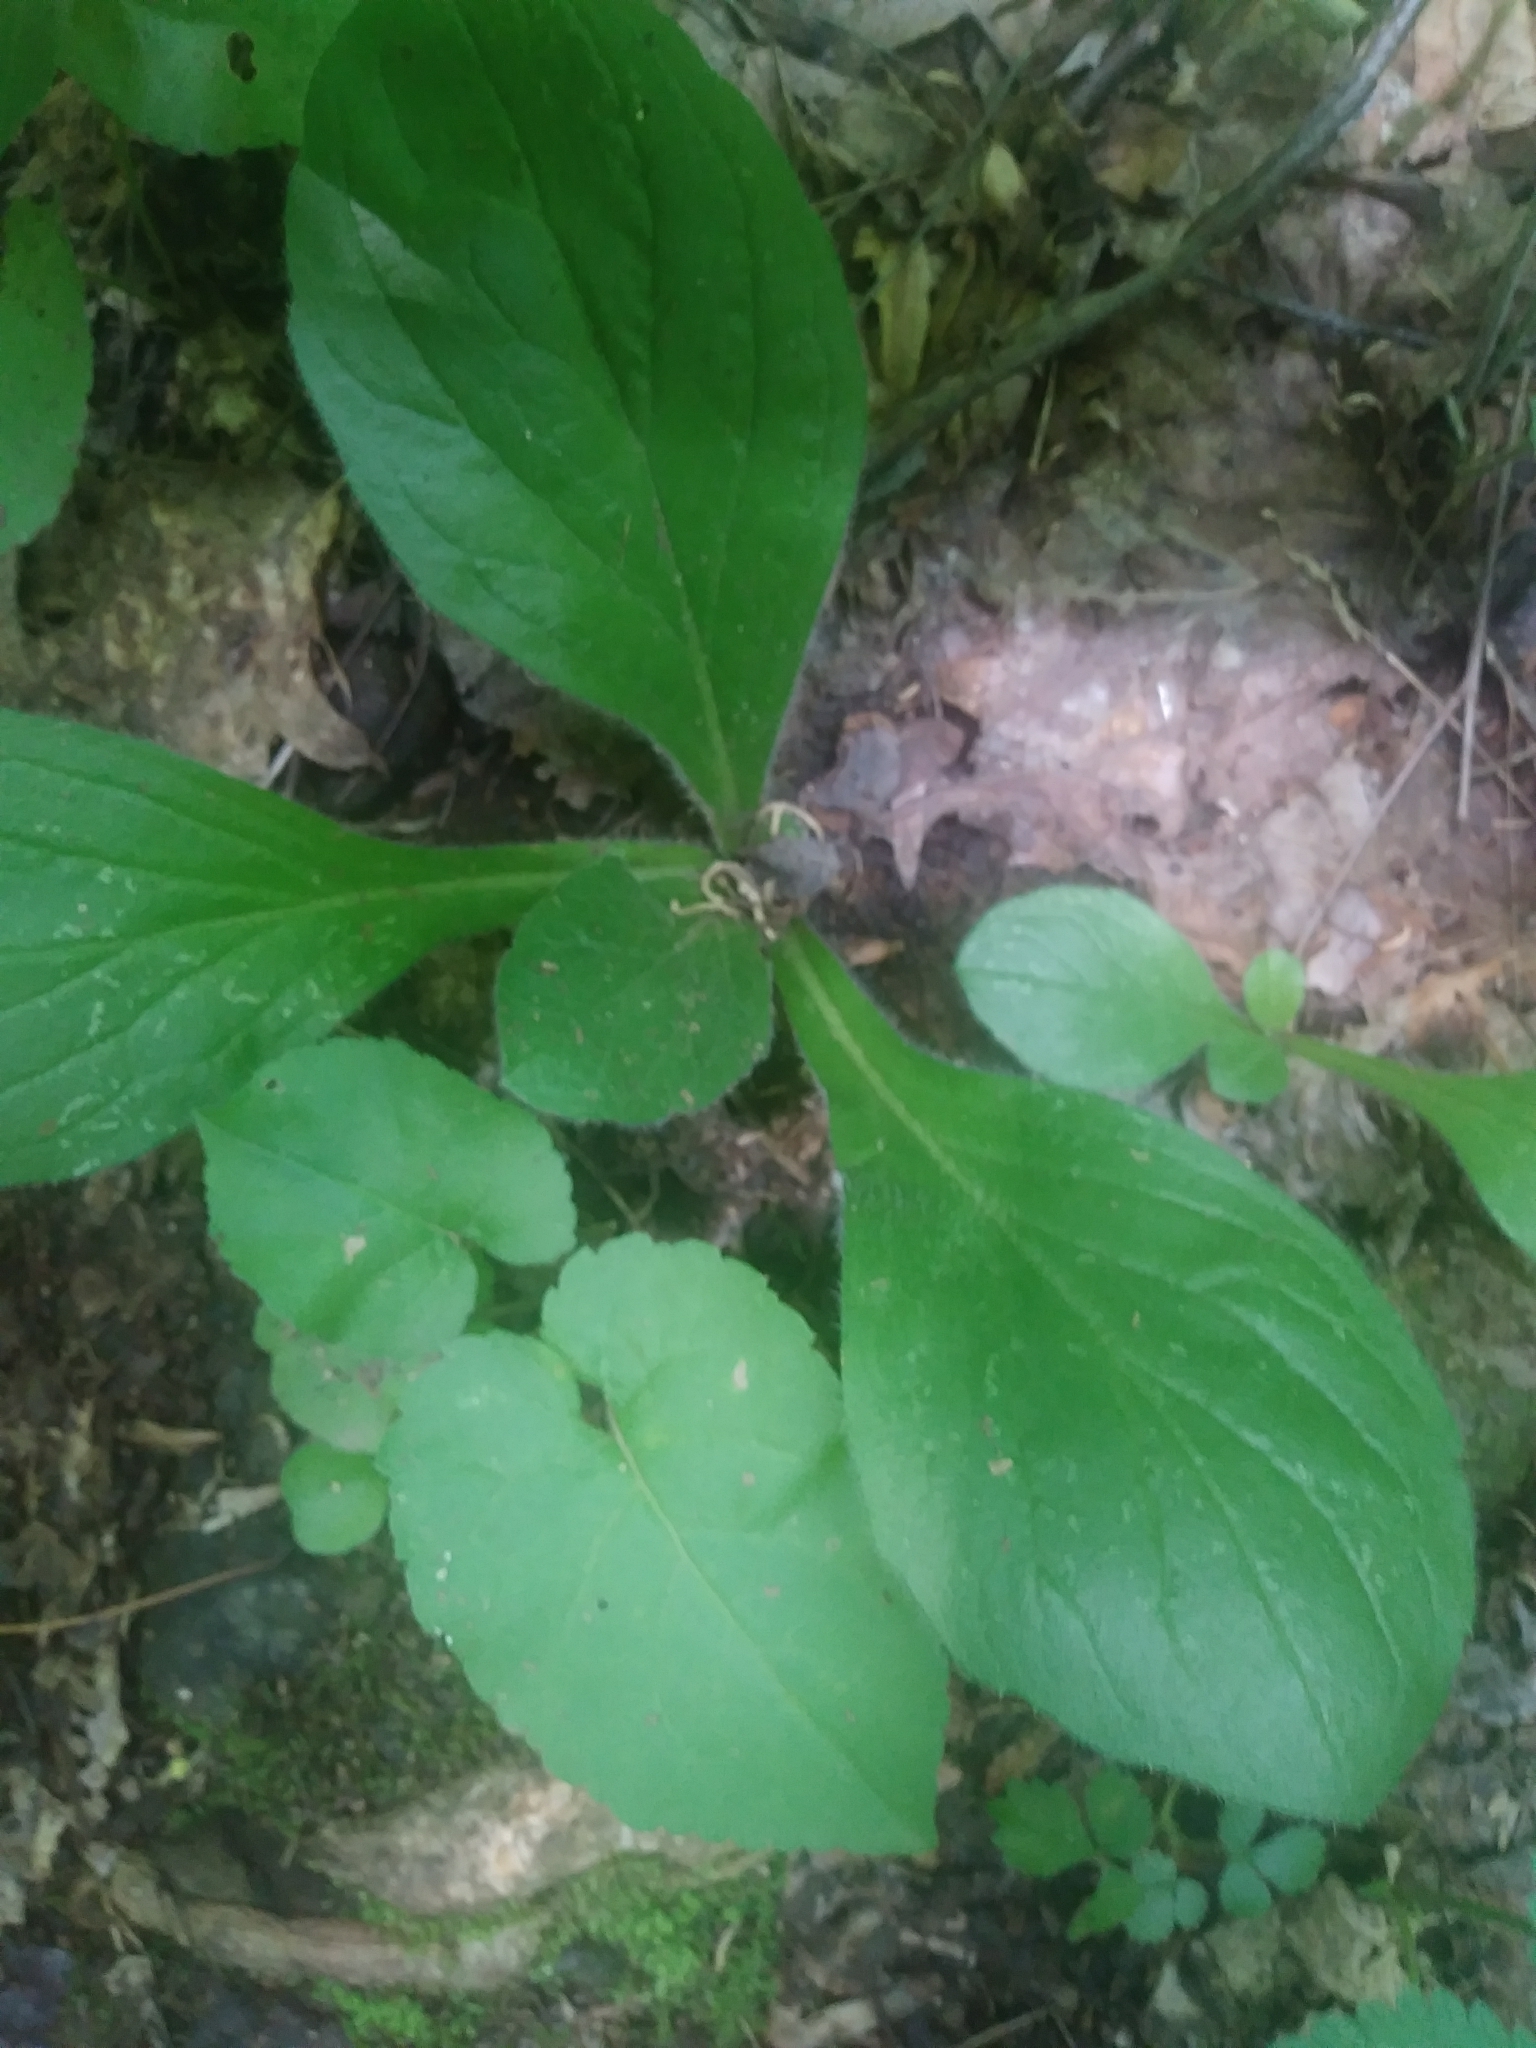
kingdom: Plantae
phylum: Tracheophyta
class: Magnoliopsida
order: Asterales
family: Asteraceae
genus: Erigeron
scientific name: Erigeron pulchellus
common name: Hairy fleabane
